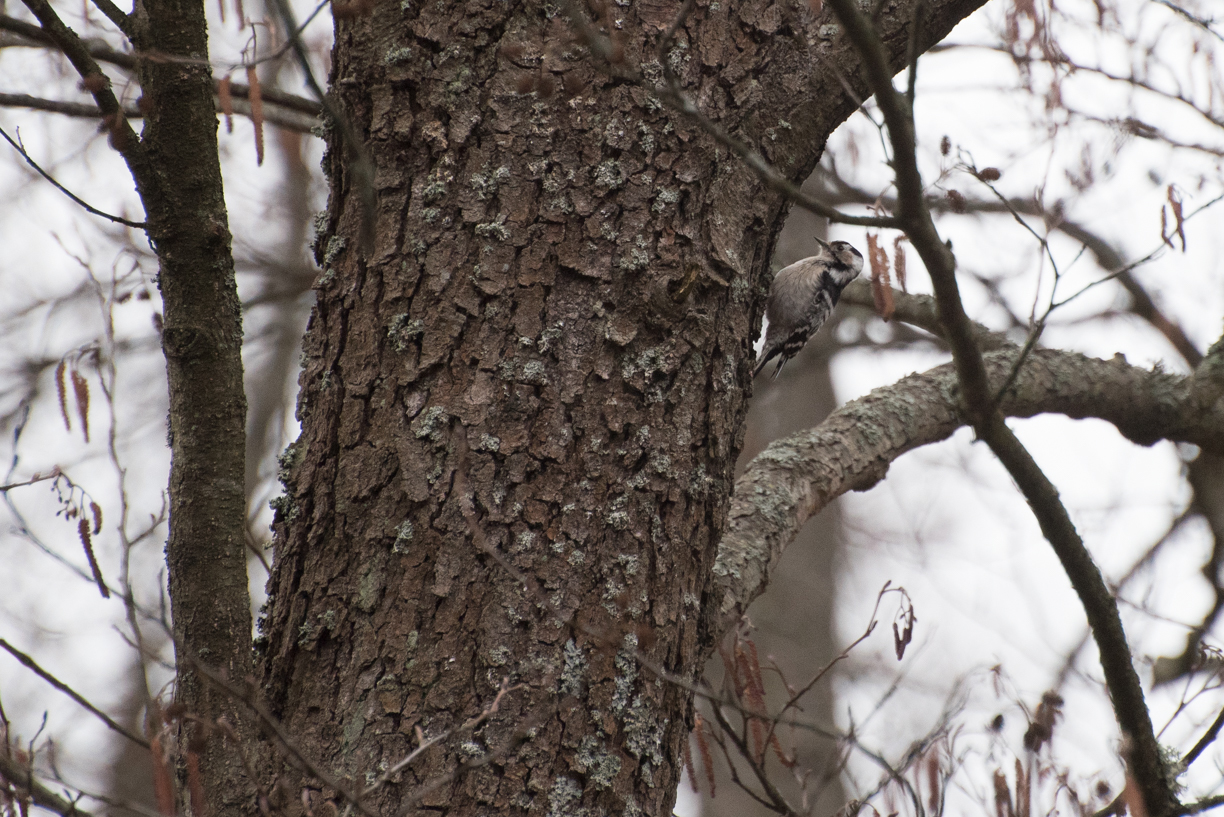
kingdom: Animalia
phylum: Chordata
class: Aves
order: Piciformes
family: Picidae
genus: Dryobates
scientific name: Dryobates minor
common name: Lesser spotted woodpecker
